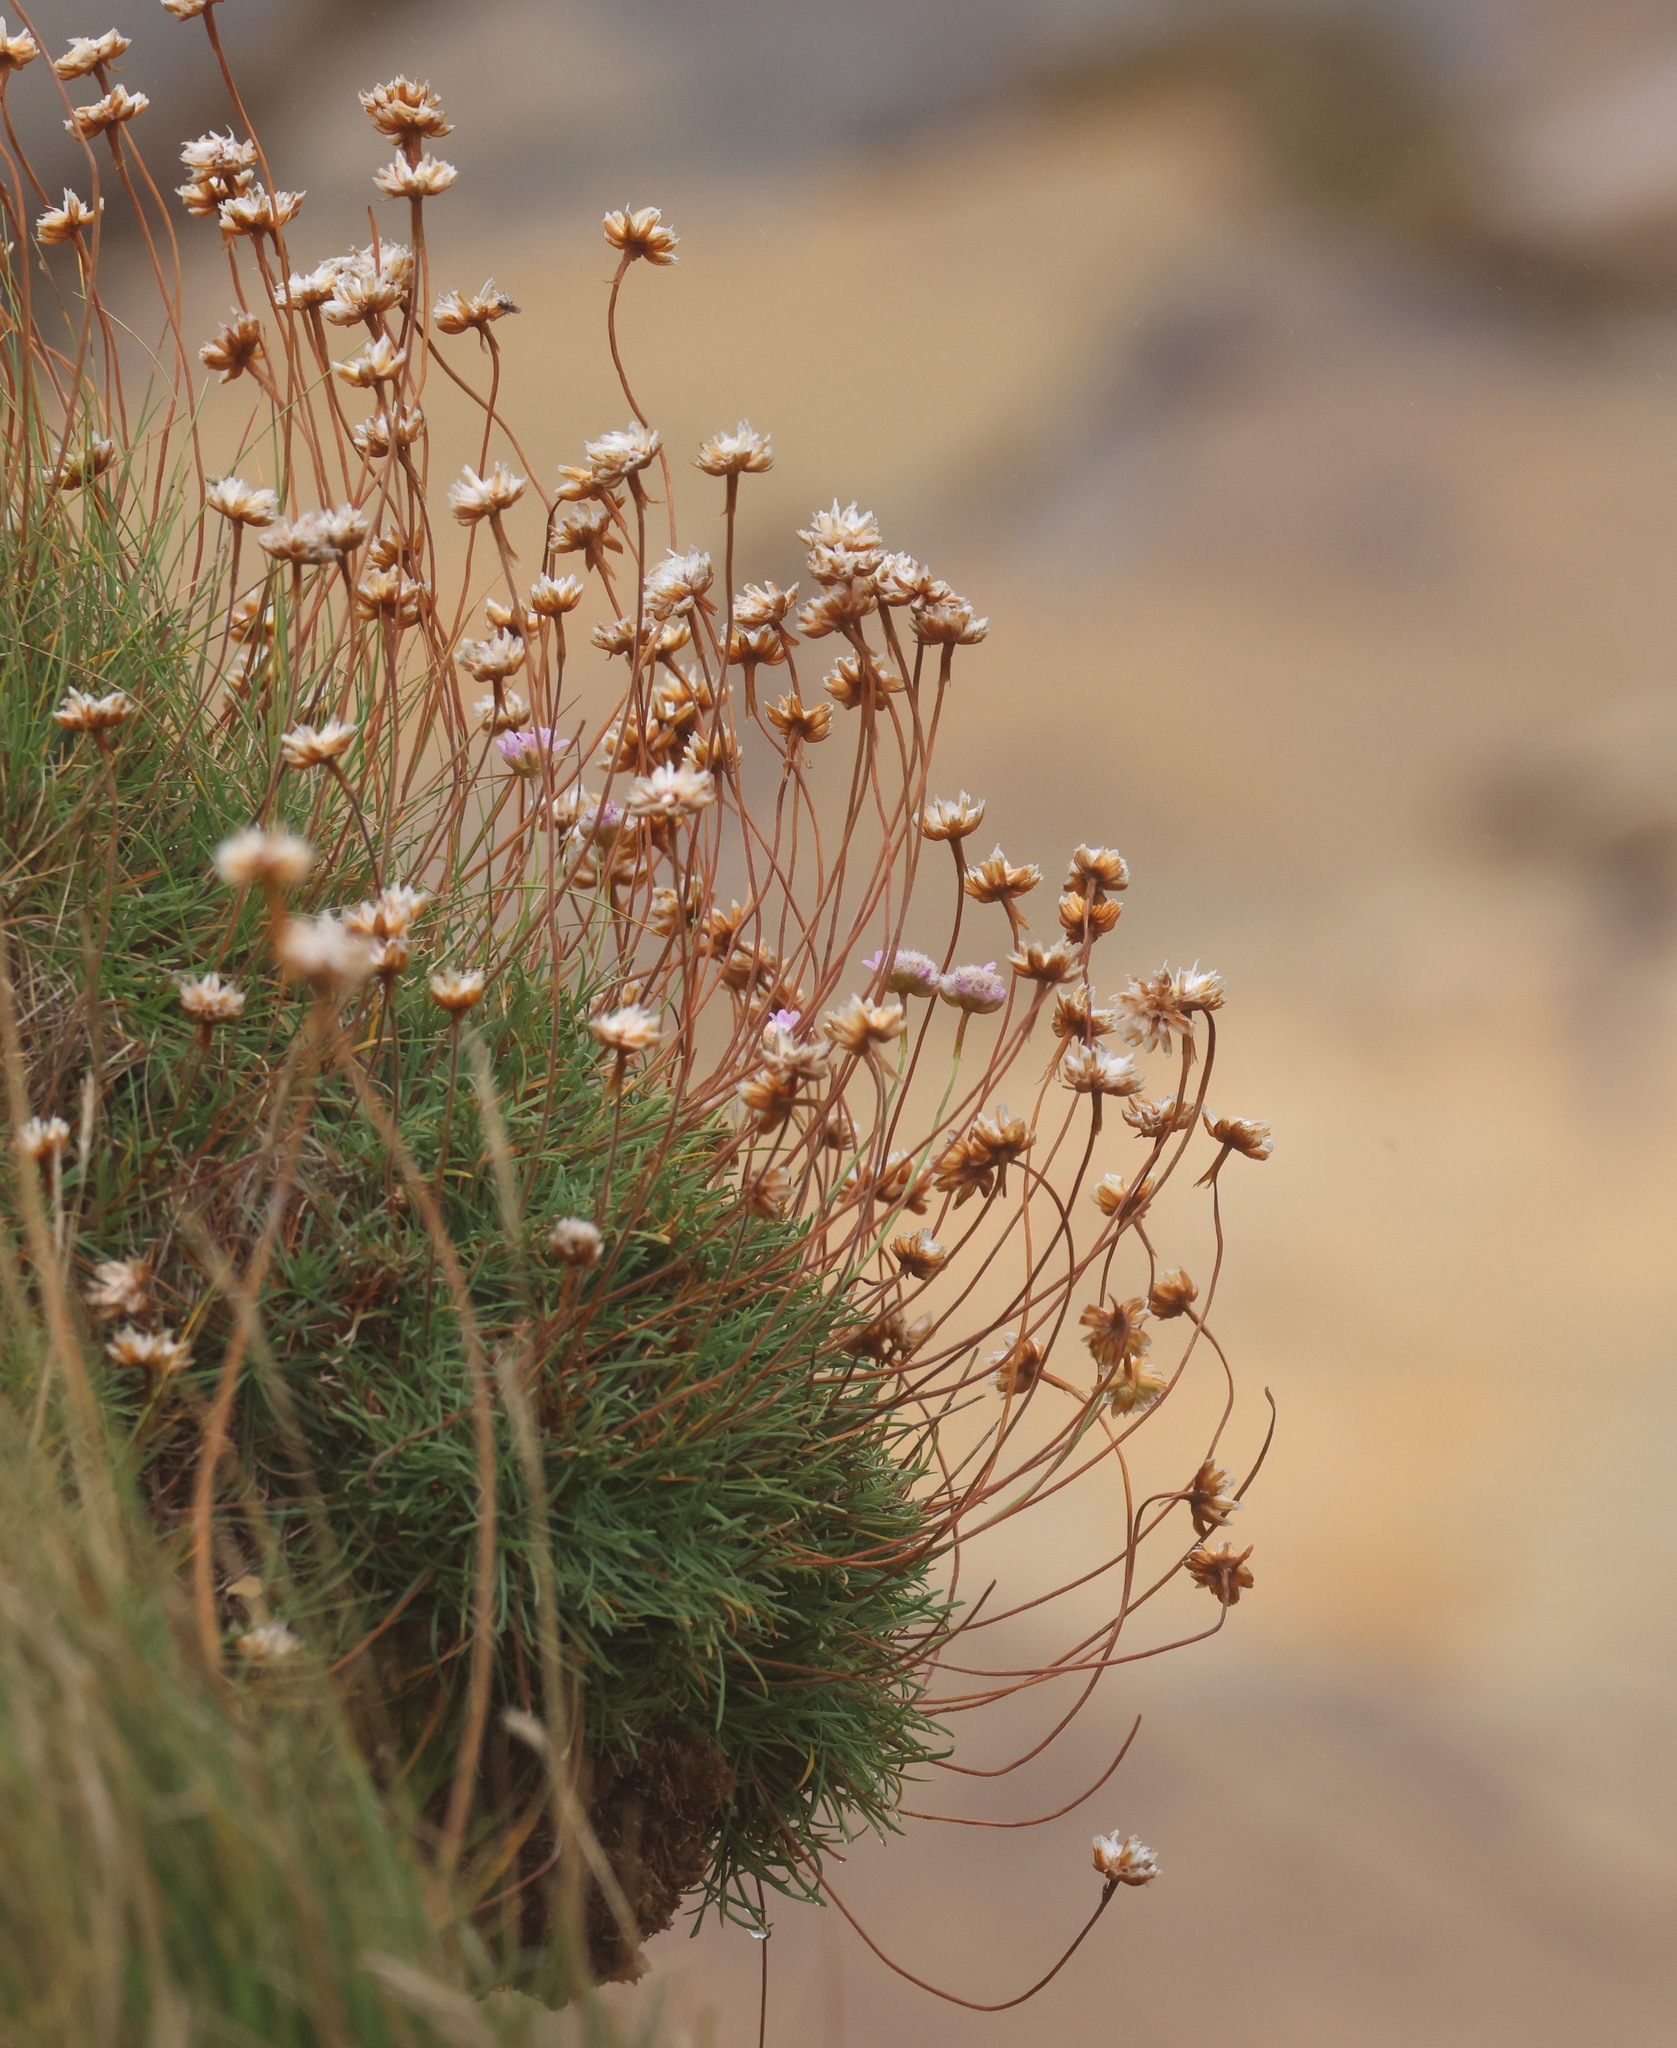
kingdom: Plantae
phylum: Tracheophyta
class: Magnoliopsida
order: Caryophyllales
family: Plumbaginaceae
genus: Armeria
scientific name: Armeria maritima
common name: Thrift
